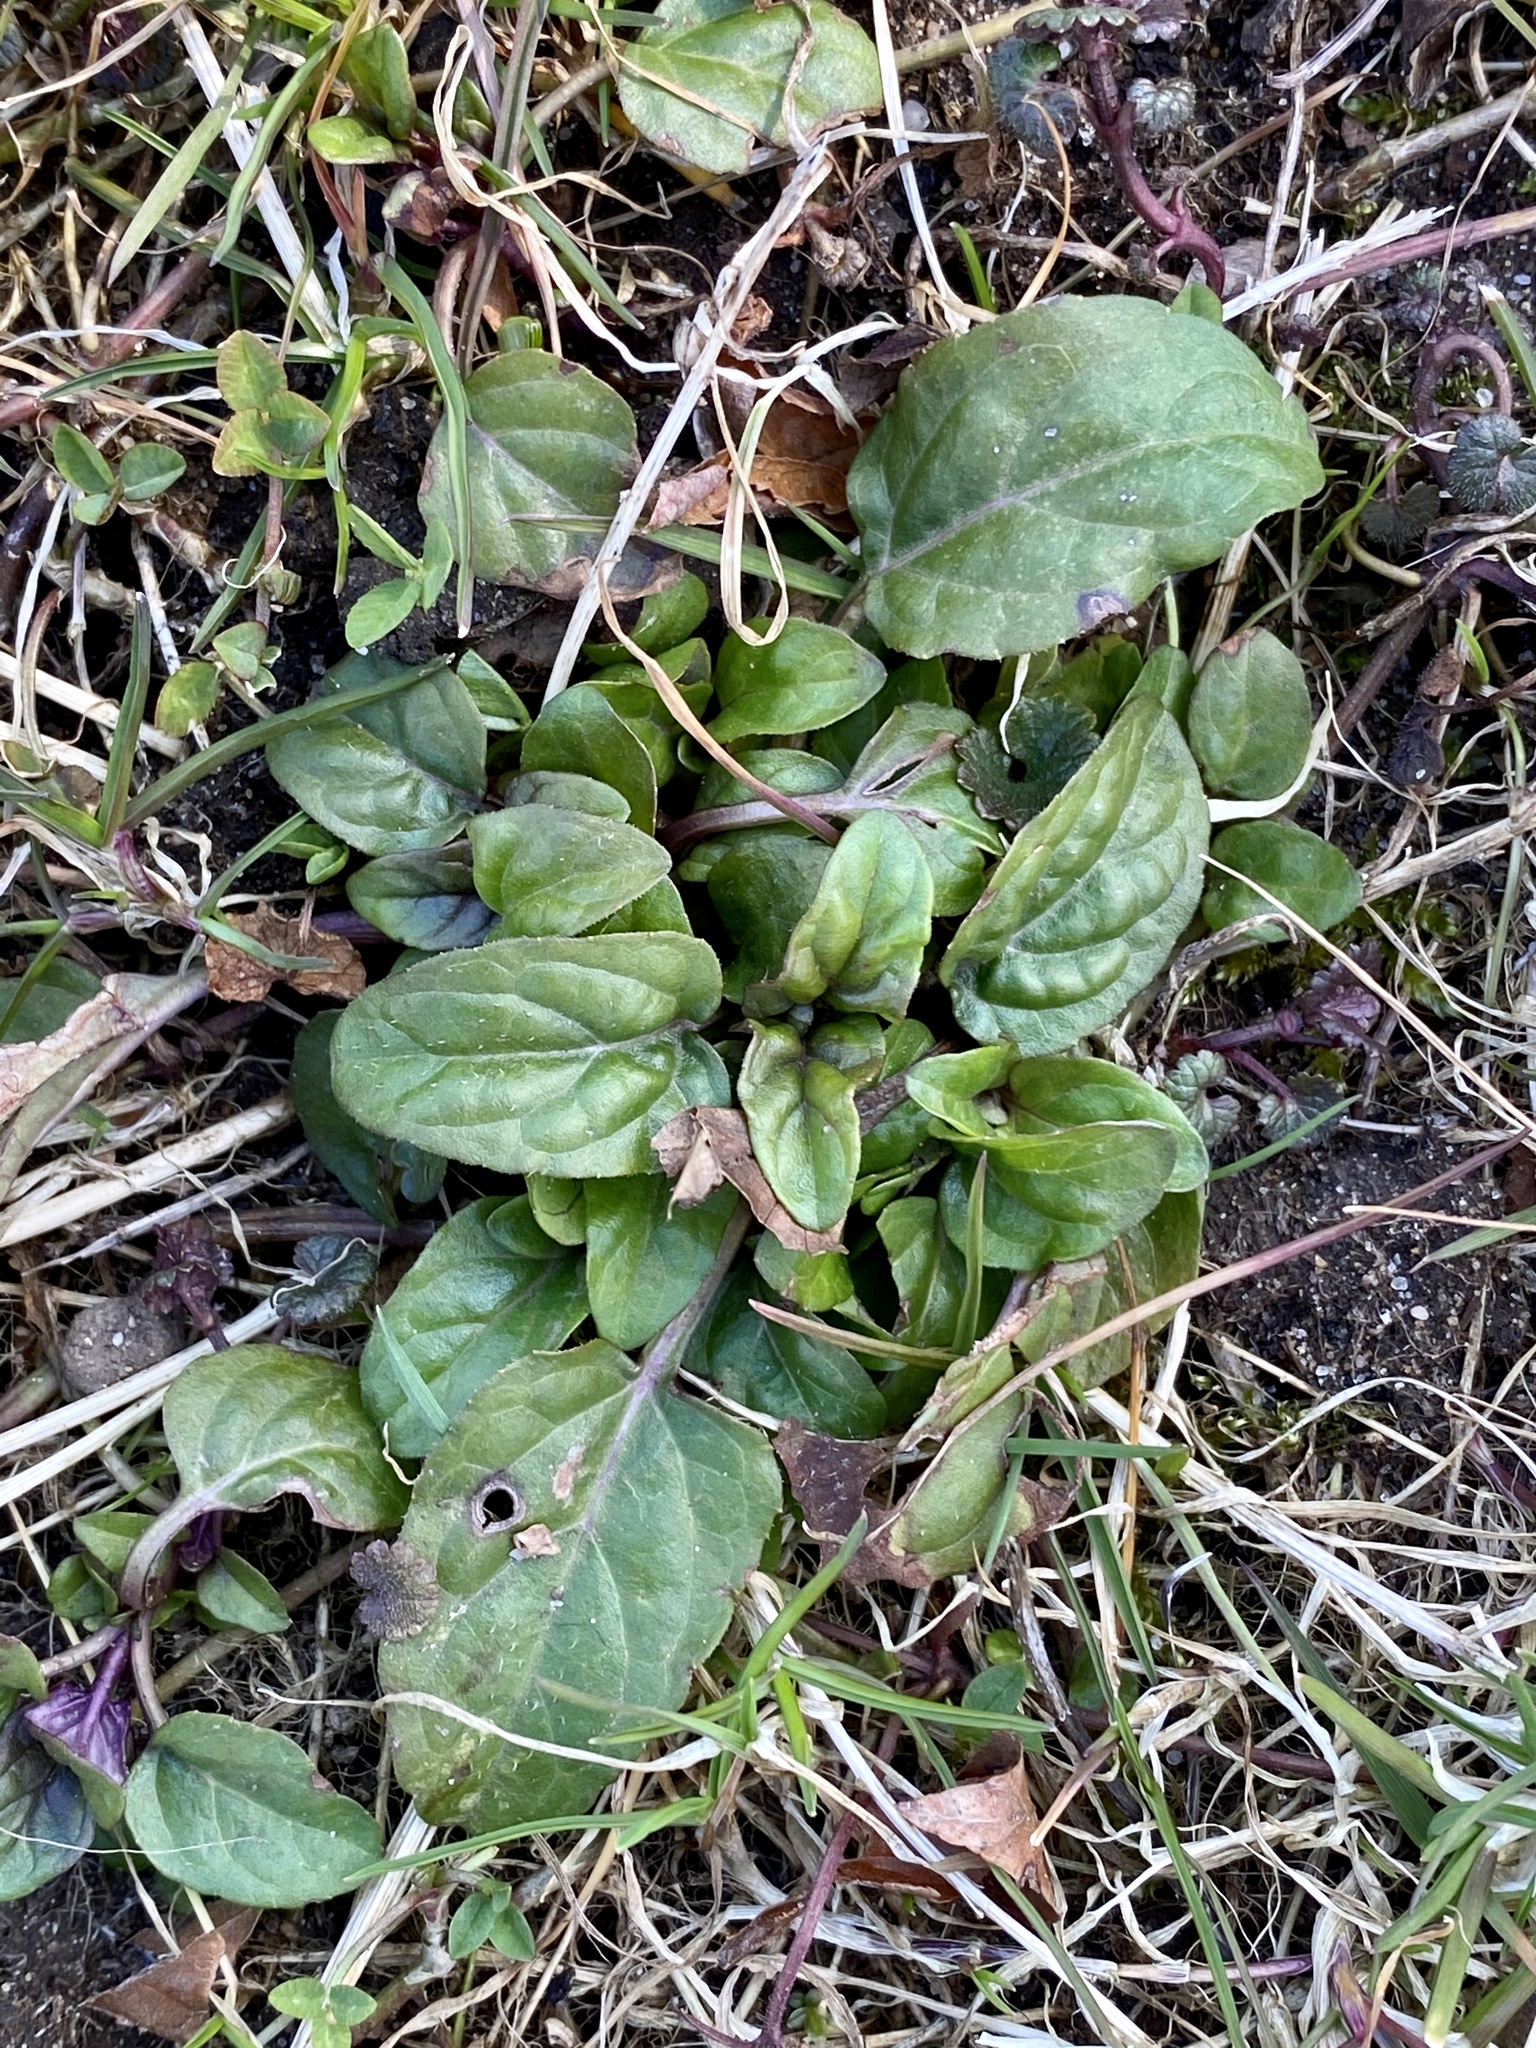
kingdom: Plantae
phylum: Tracheophyta
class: Magnoliopsida
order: Lamiales
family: Lamiaceae
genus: Prunella
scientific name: Prunella vulgaris
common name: Heal-all
